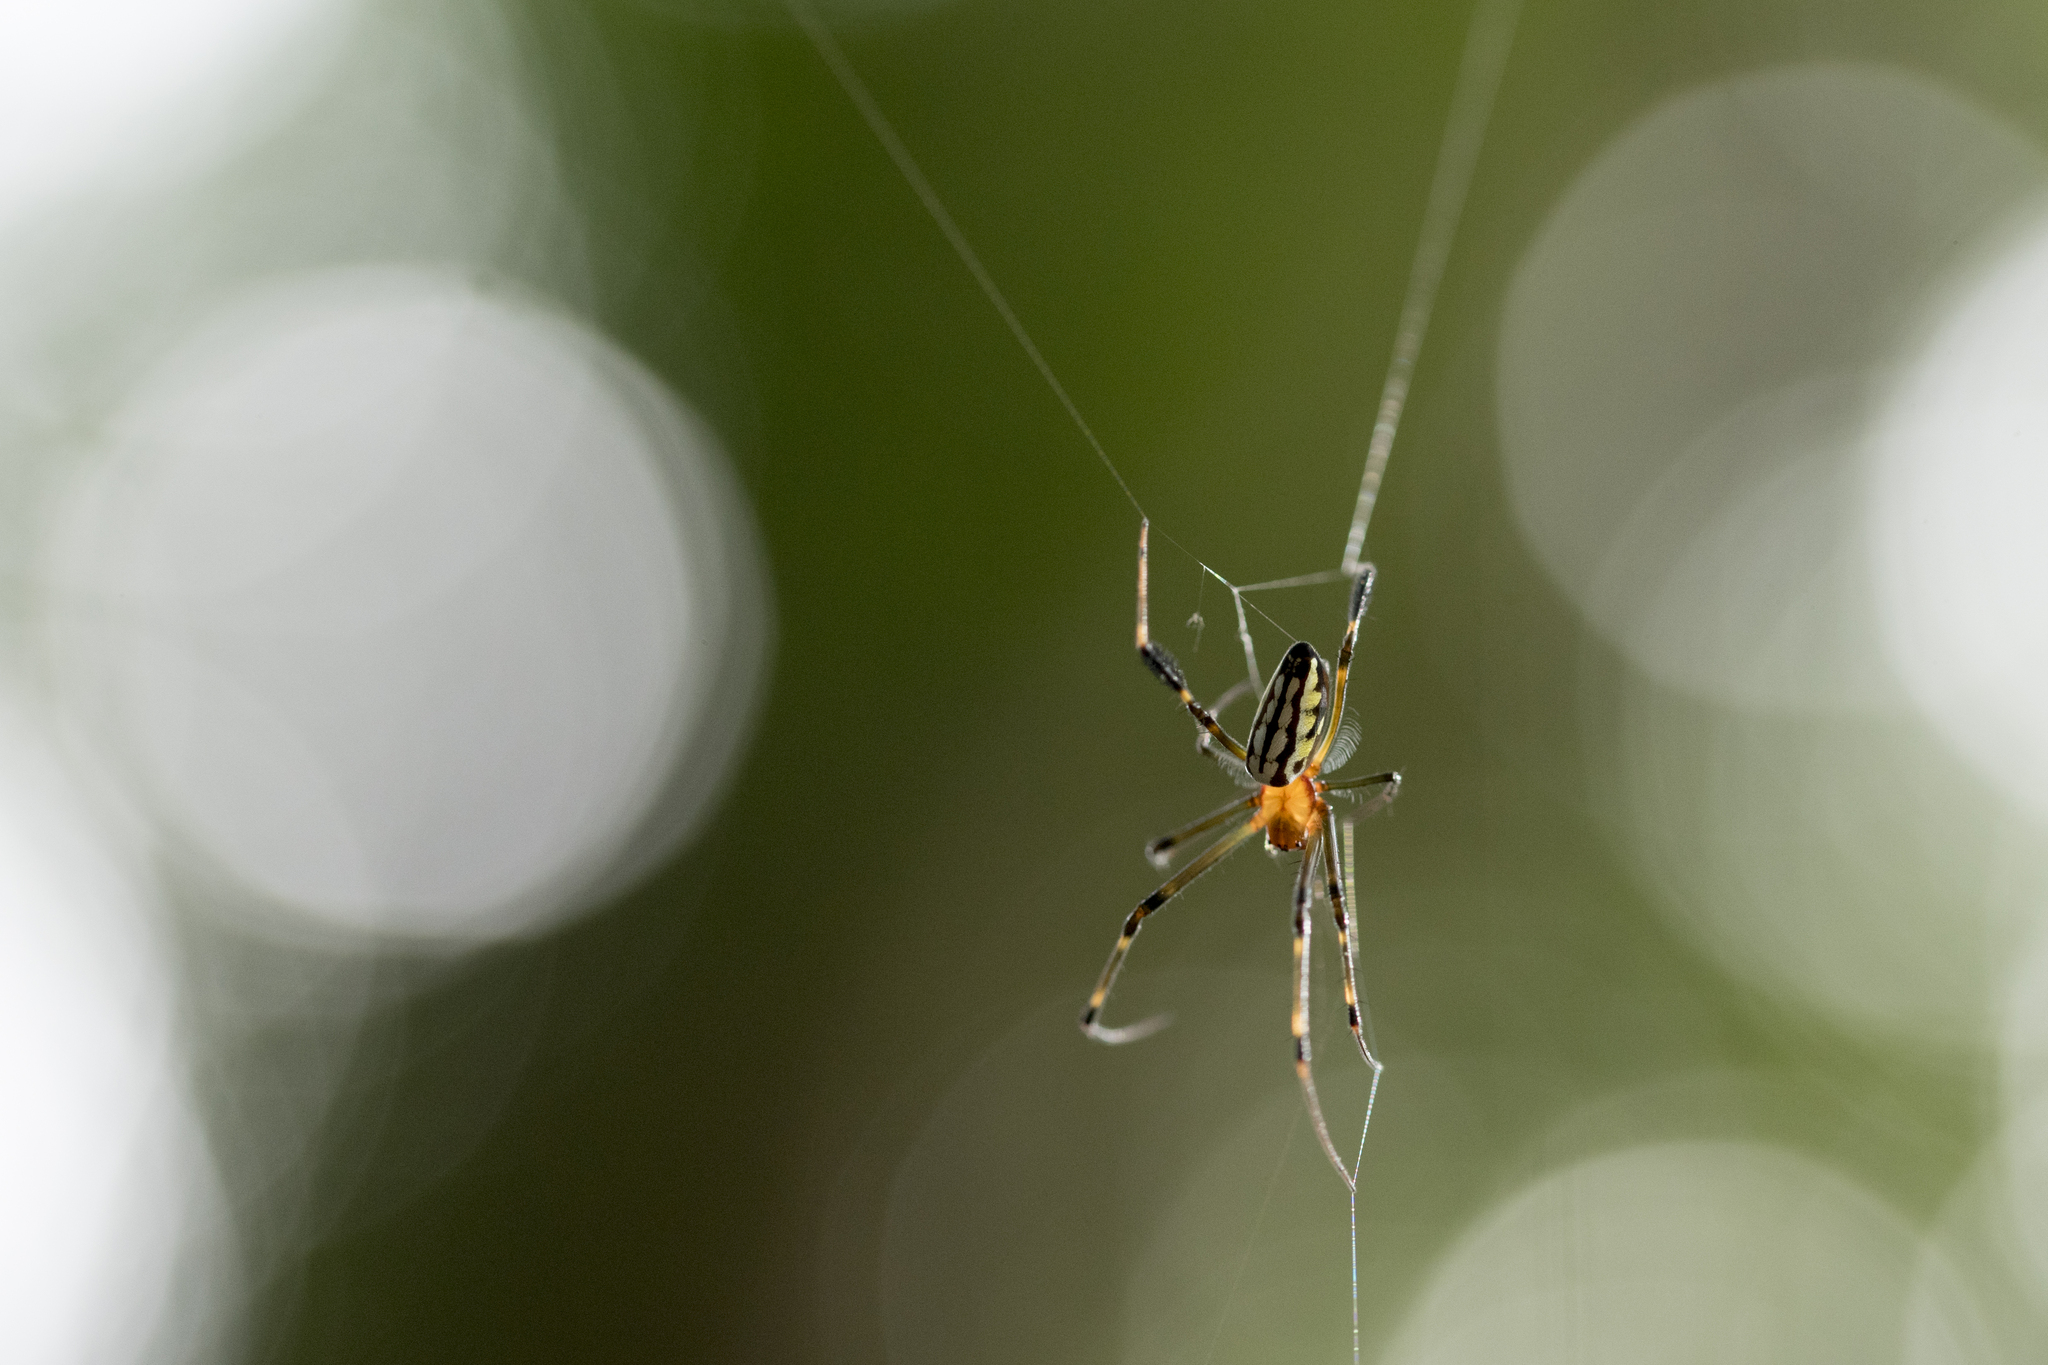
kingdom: Animalia
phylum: Arthropoda
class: Arachnida
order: Araneae
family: Tetragnathidae
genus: Leucauge
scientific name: Leucauge tessellata
